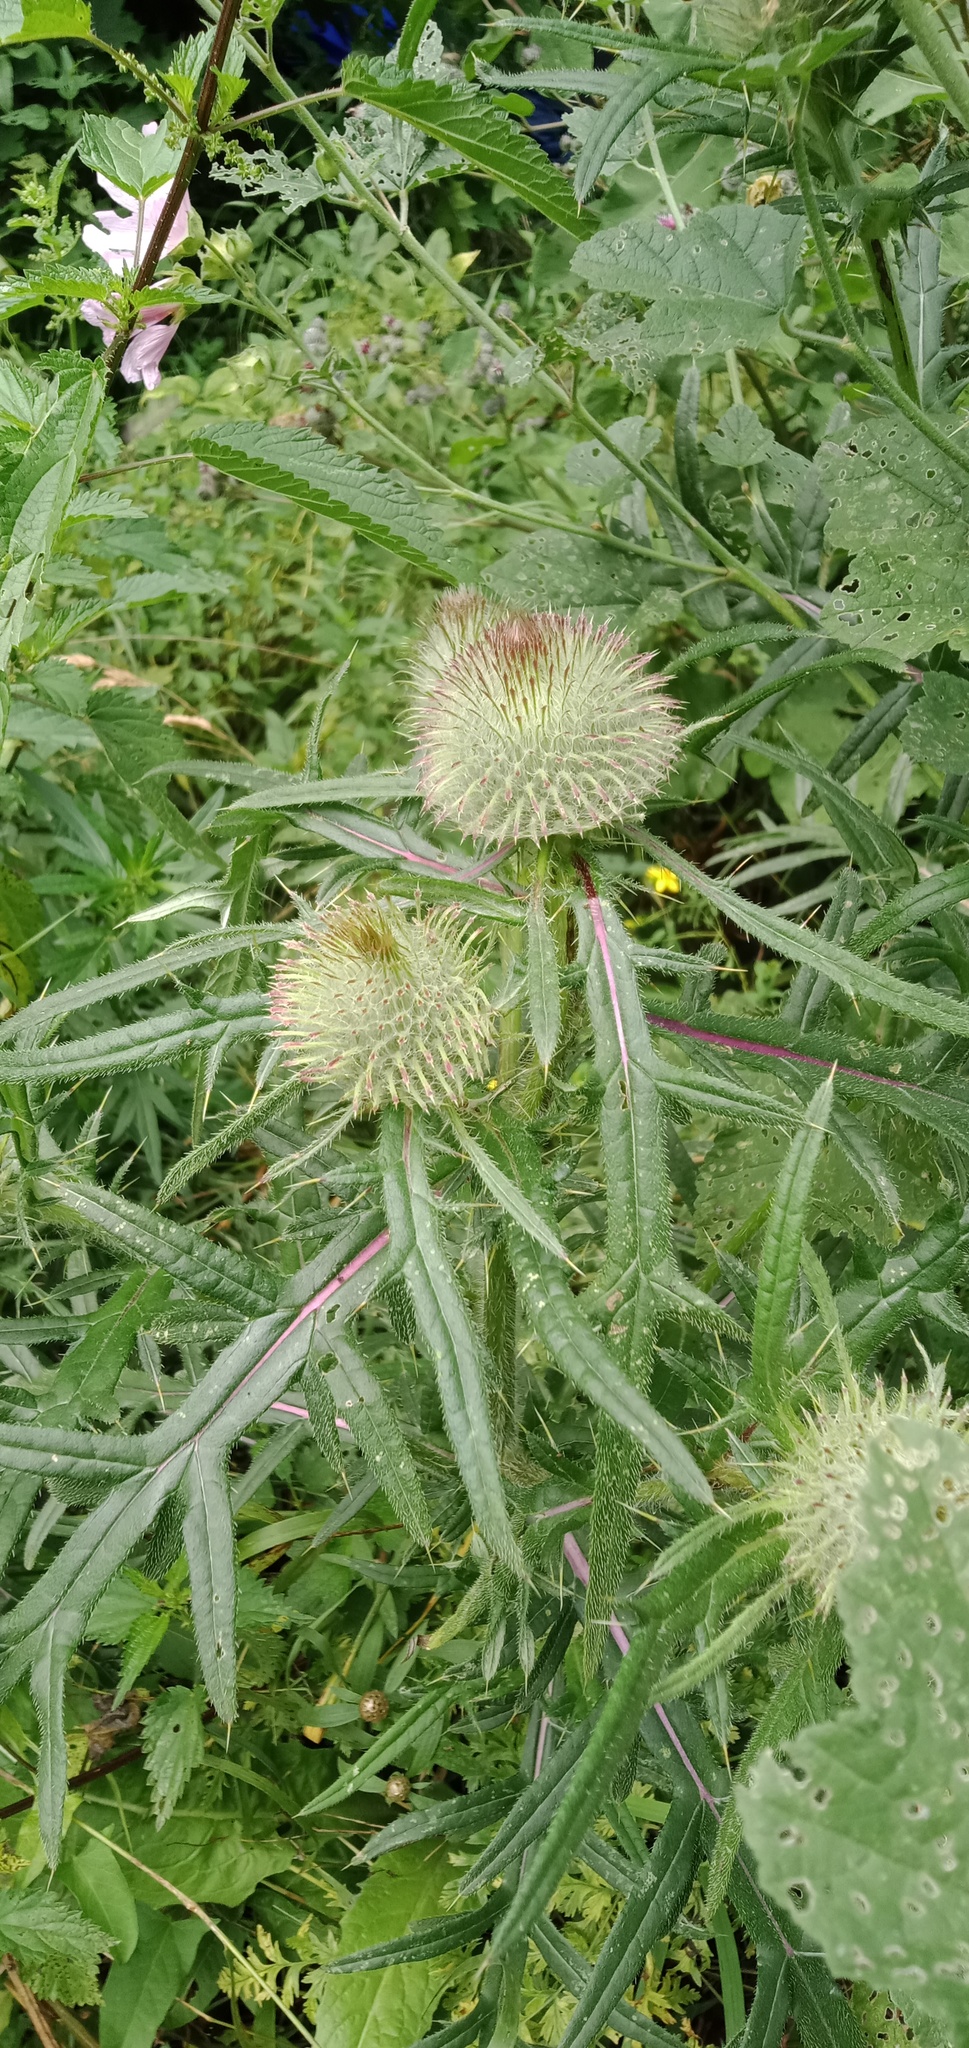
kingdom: Plantae
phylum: Tracheophyta
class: Magnoliopsida
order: Asterales
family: Asteraceae
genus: Lophiolepis
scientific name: Lophiolepis decussata
